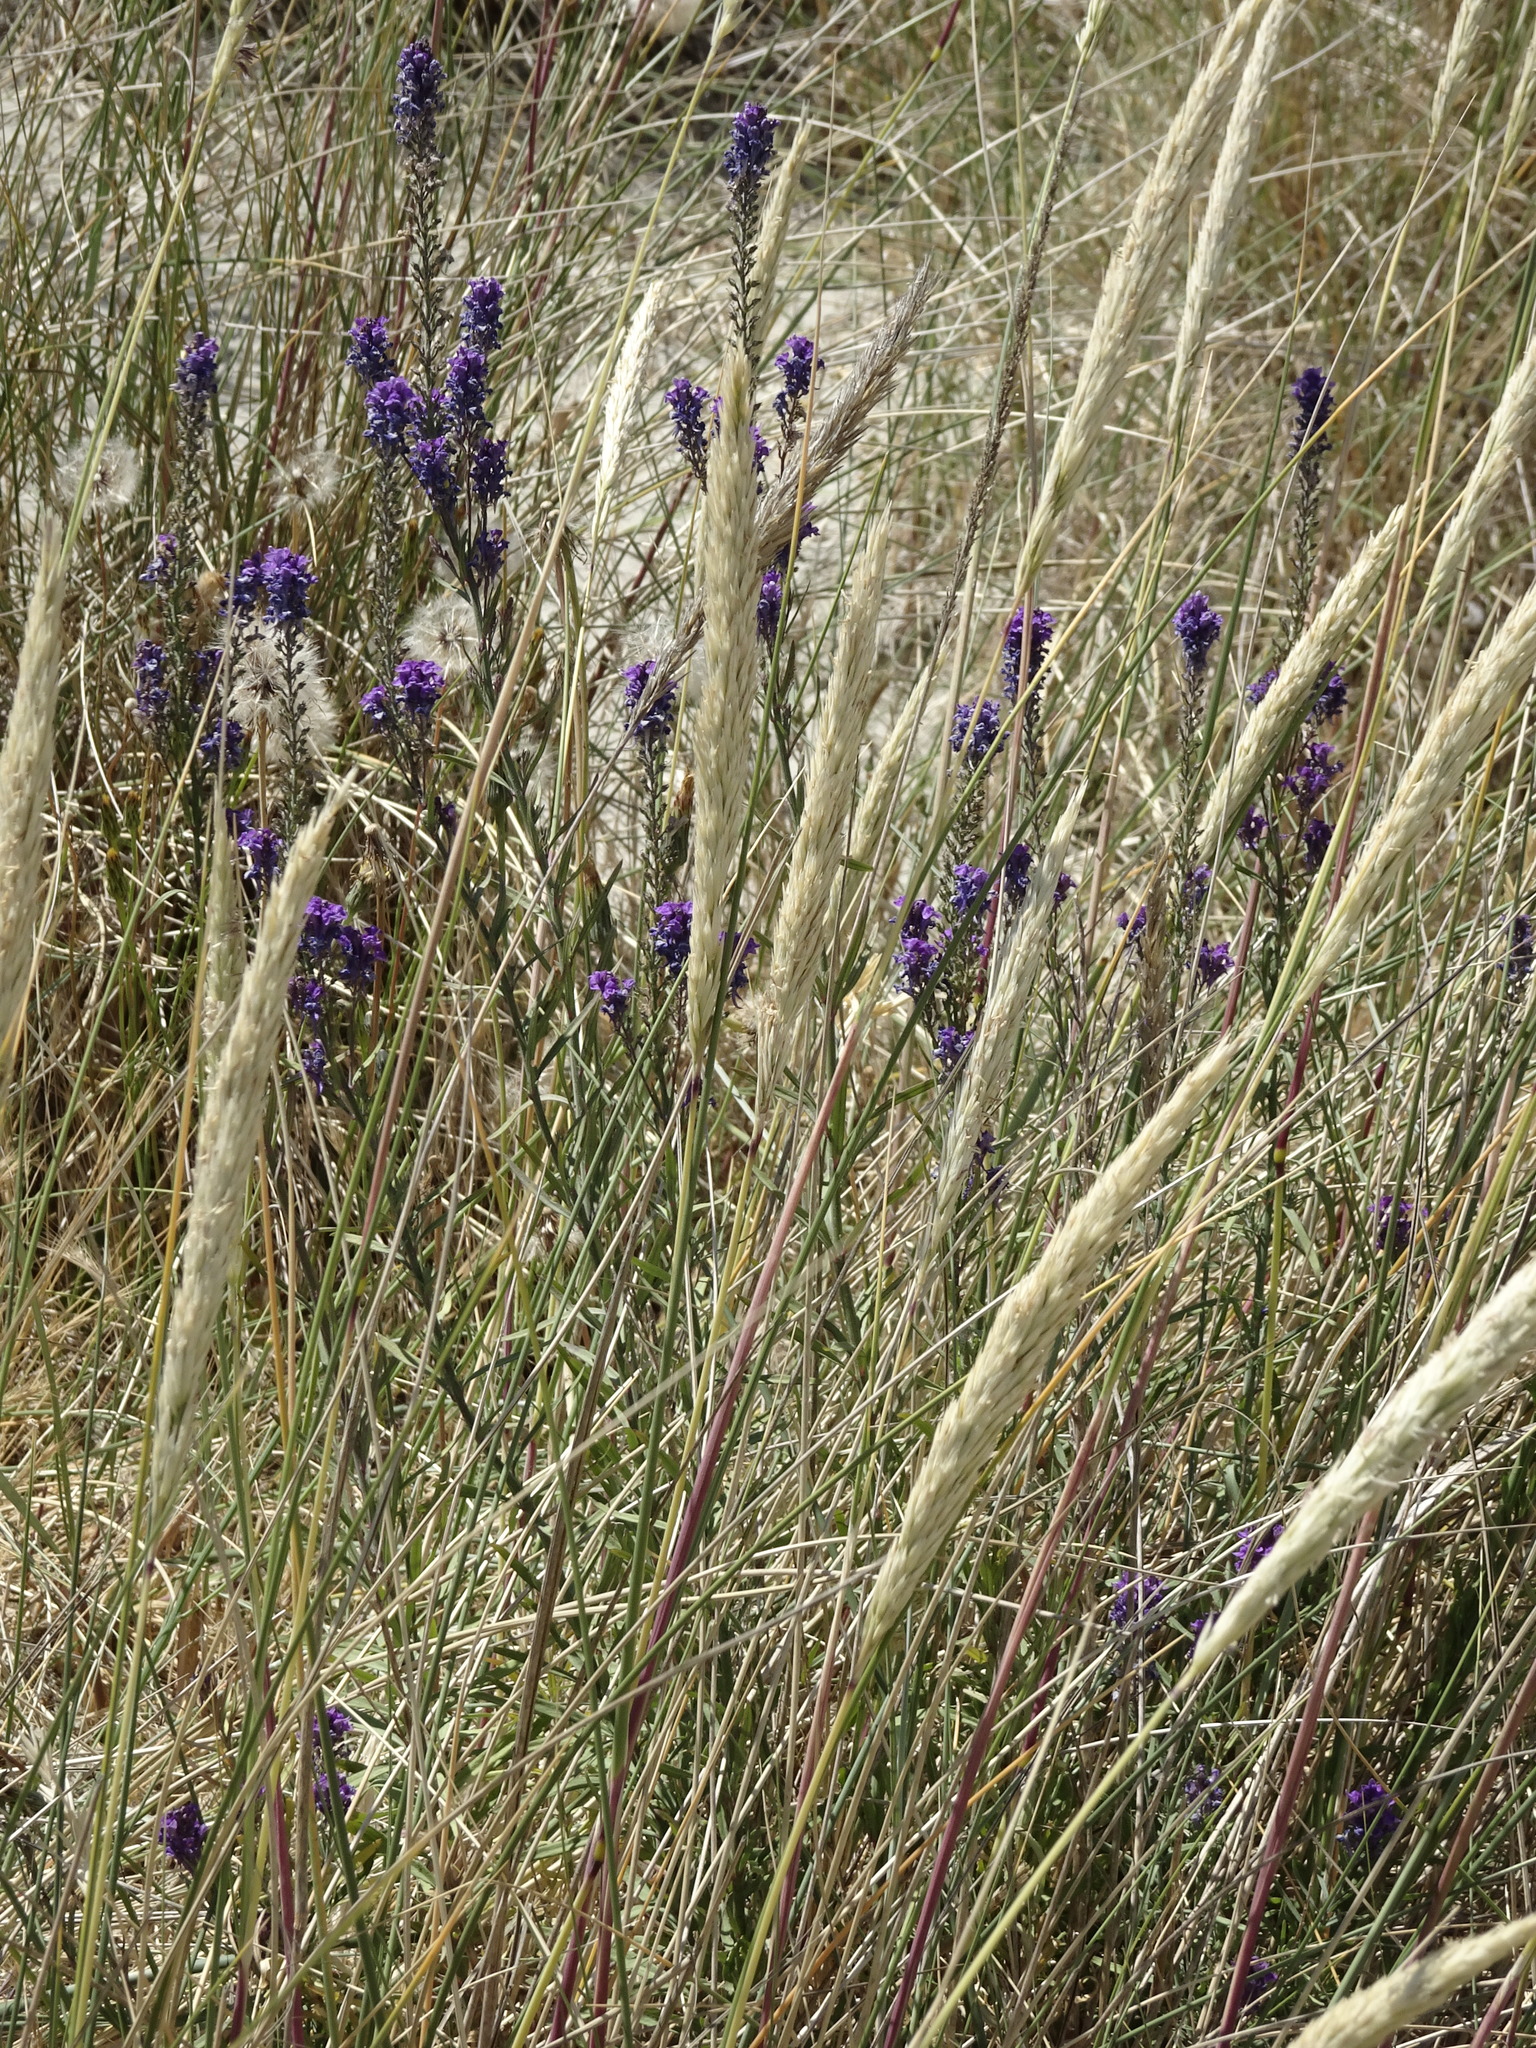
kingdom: Plantae
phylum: Tracheophyta
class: Magnoliopsida
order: Lamiales
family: Plantaginaceae
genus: Linaria
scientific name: Linaria purpurea
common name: Purple toadflax
